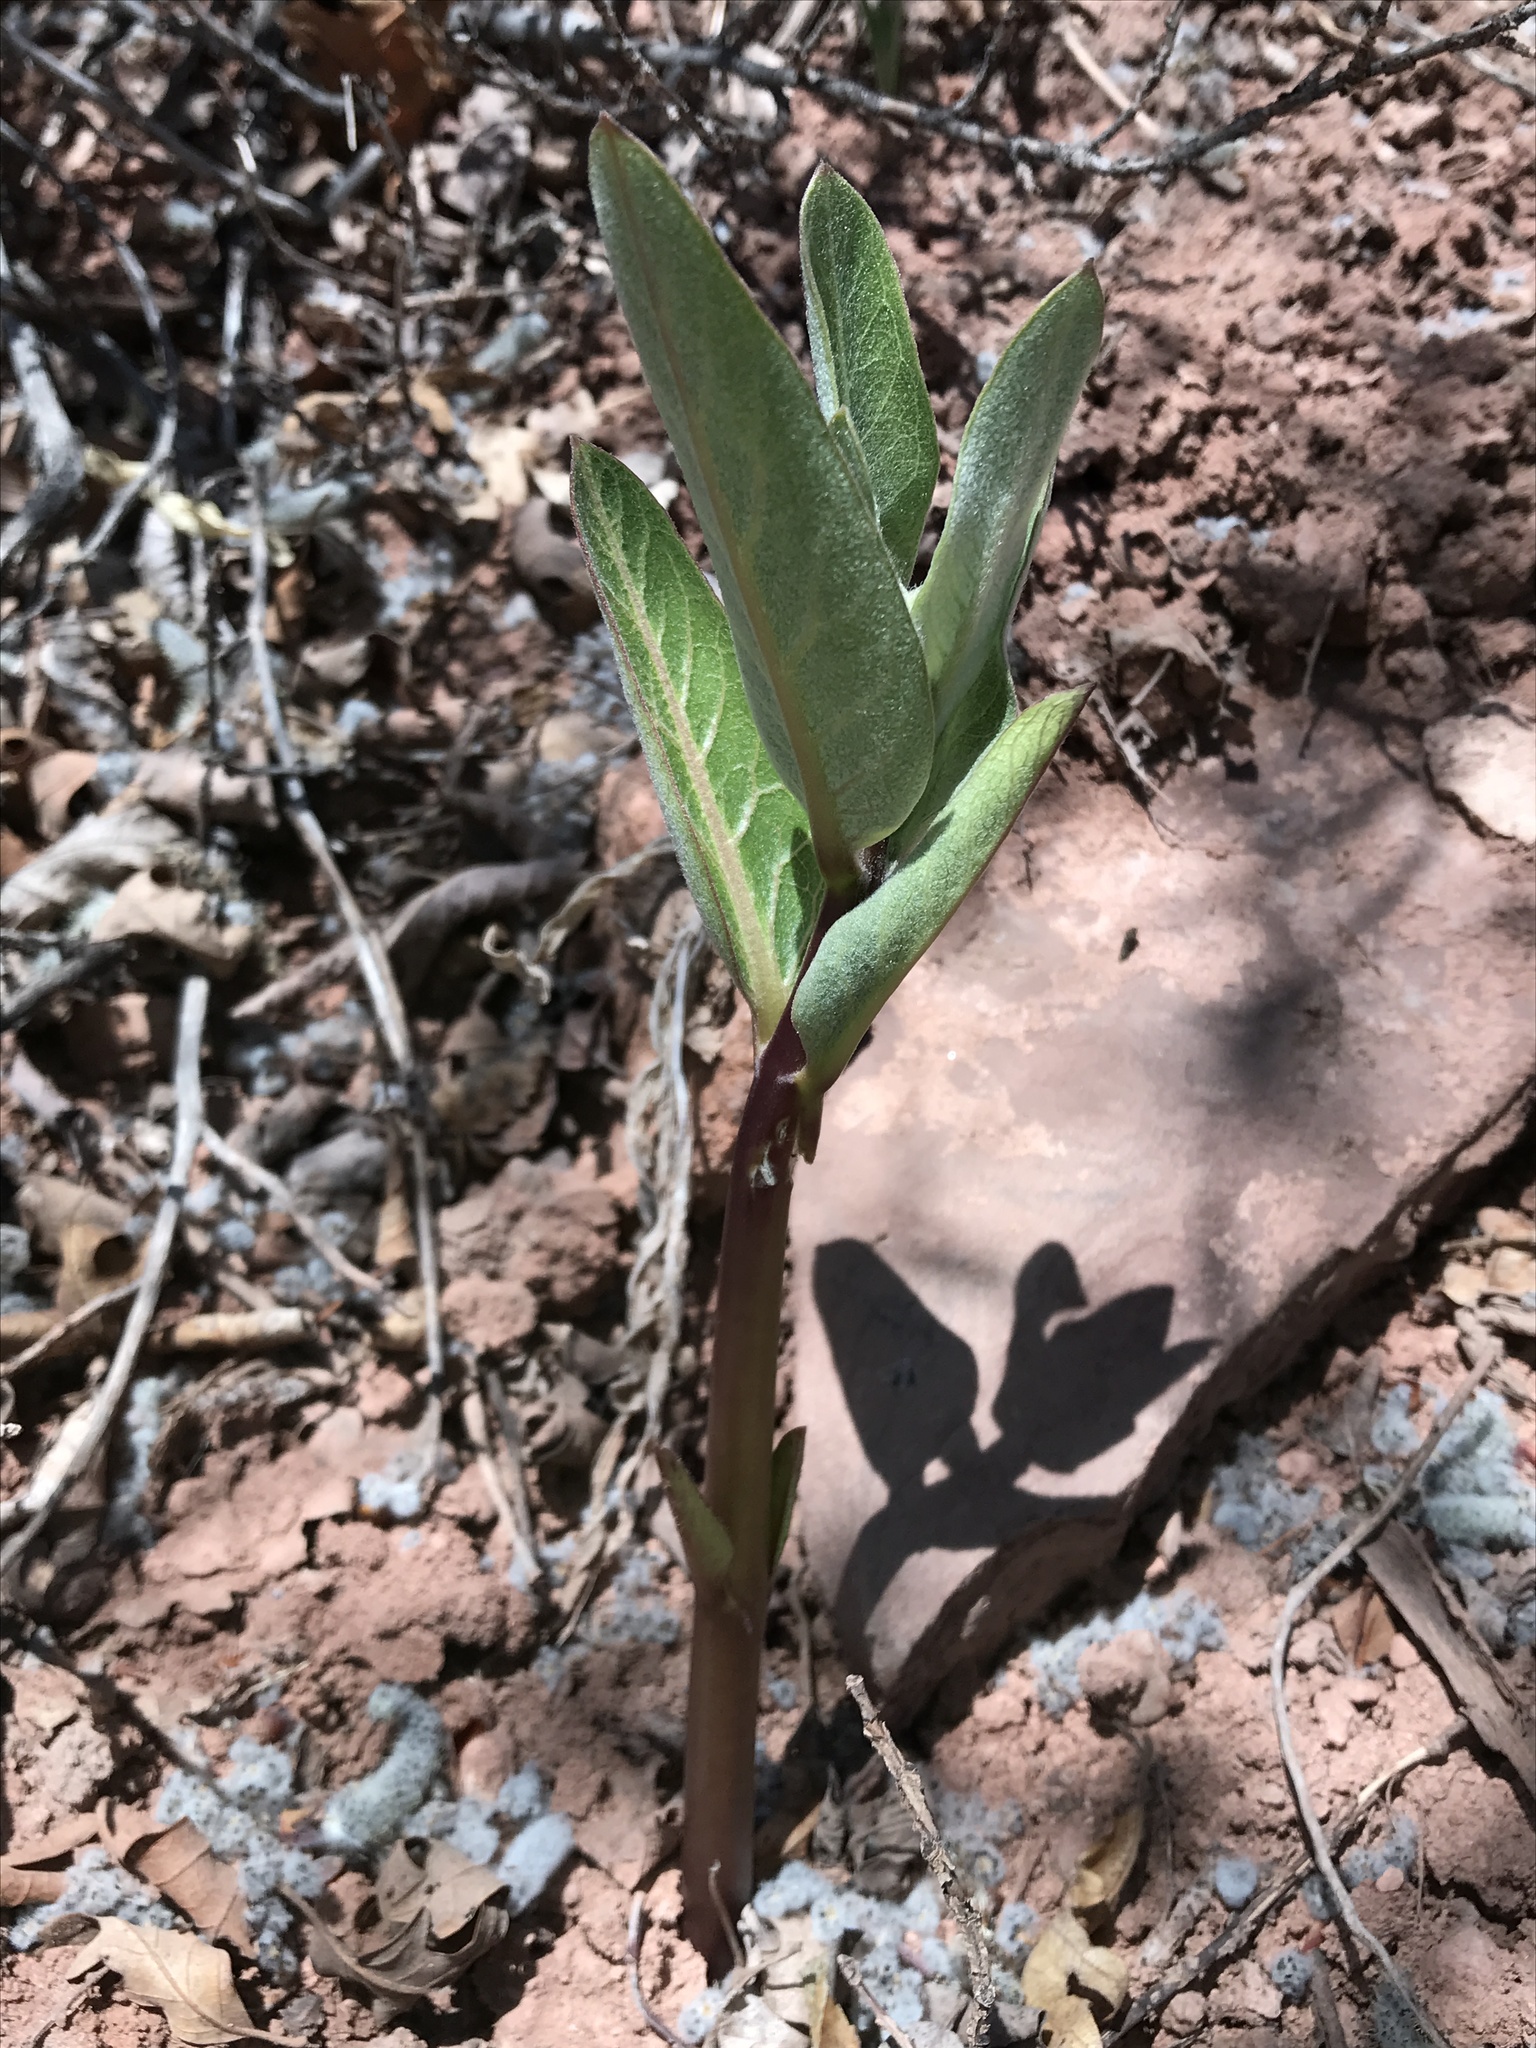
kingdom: Plantae
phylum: Tracheophyta
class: Magnoliopsida
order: Gentianales
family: Apocynaceae
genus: Asclepias
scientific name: Asclepias speciosa
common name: Showy milkweed
